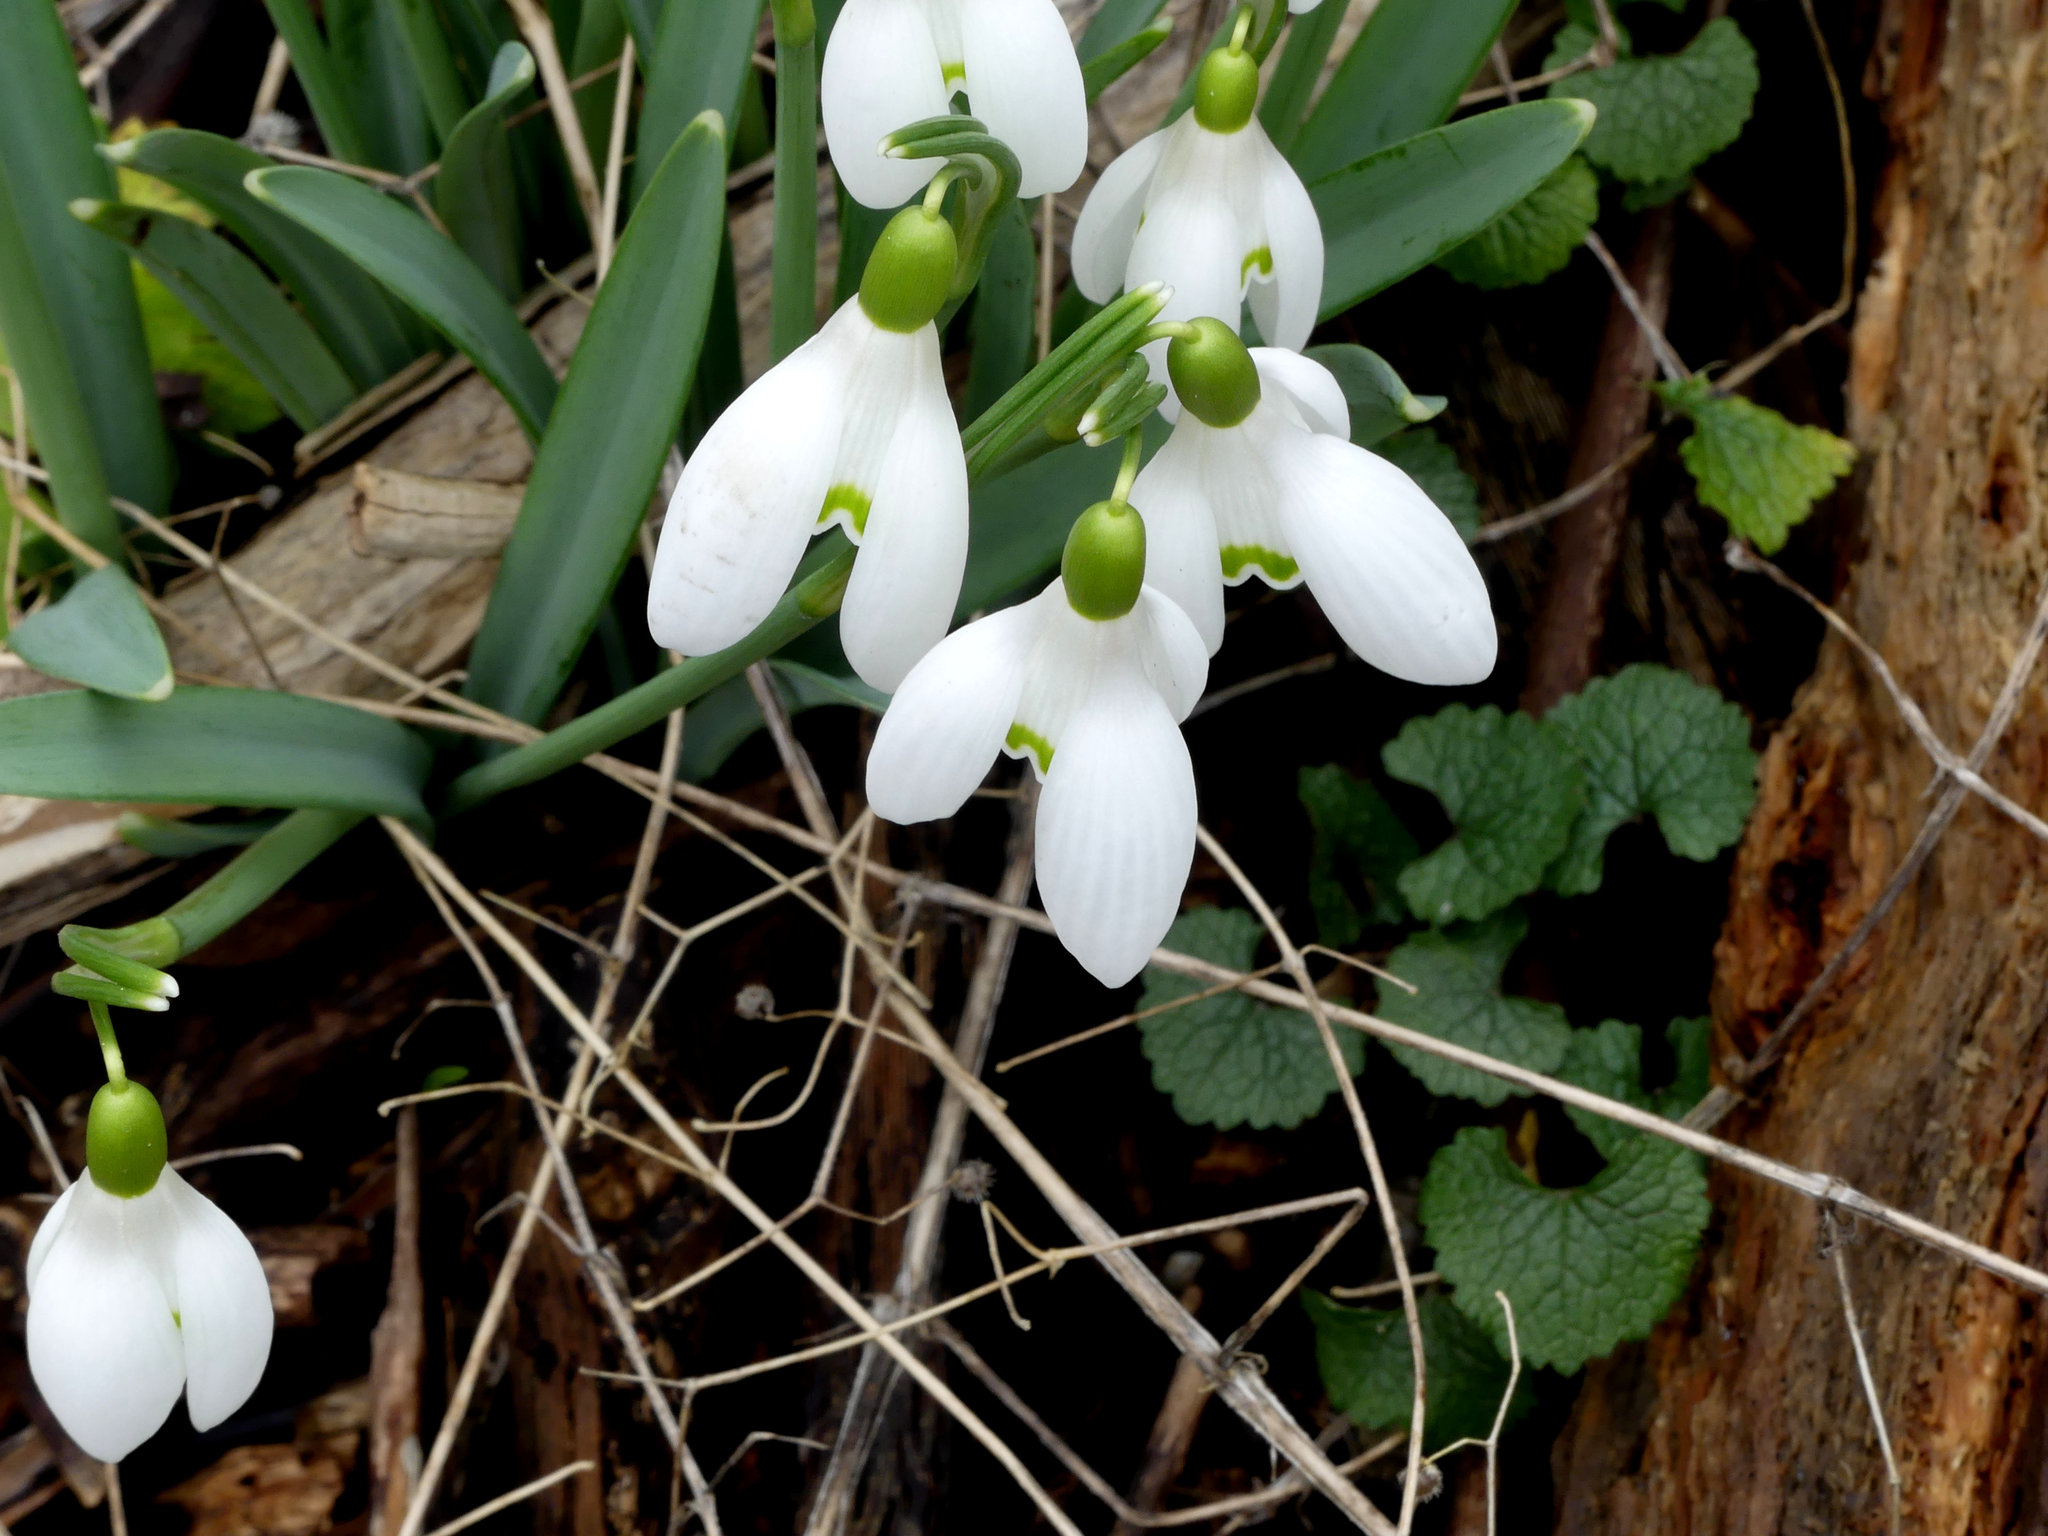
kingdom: Plantae
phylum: Tracheophyta
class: Liliopsida
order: Asparagales
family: Amaryllidaceae
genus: Galanthus
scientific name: Galanthus nivalis
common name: Snowdrop
